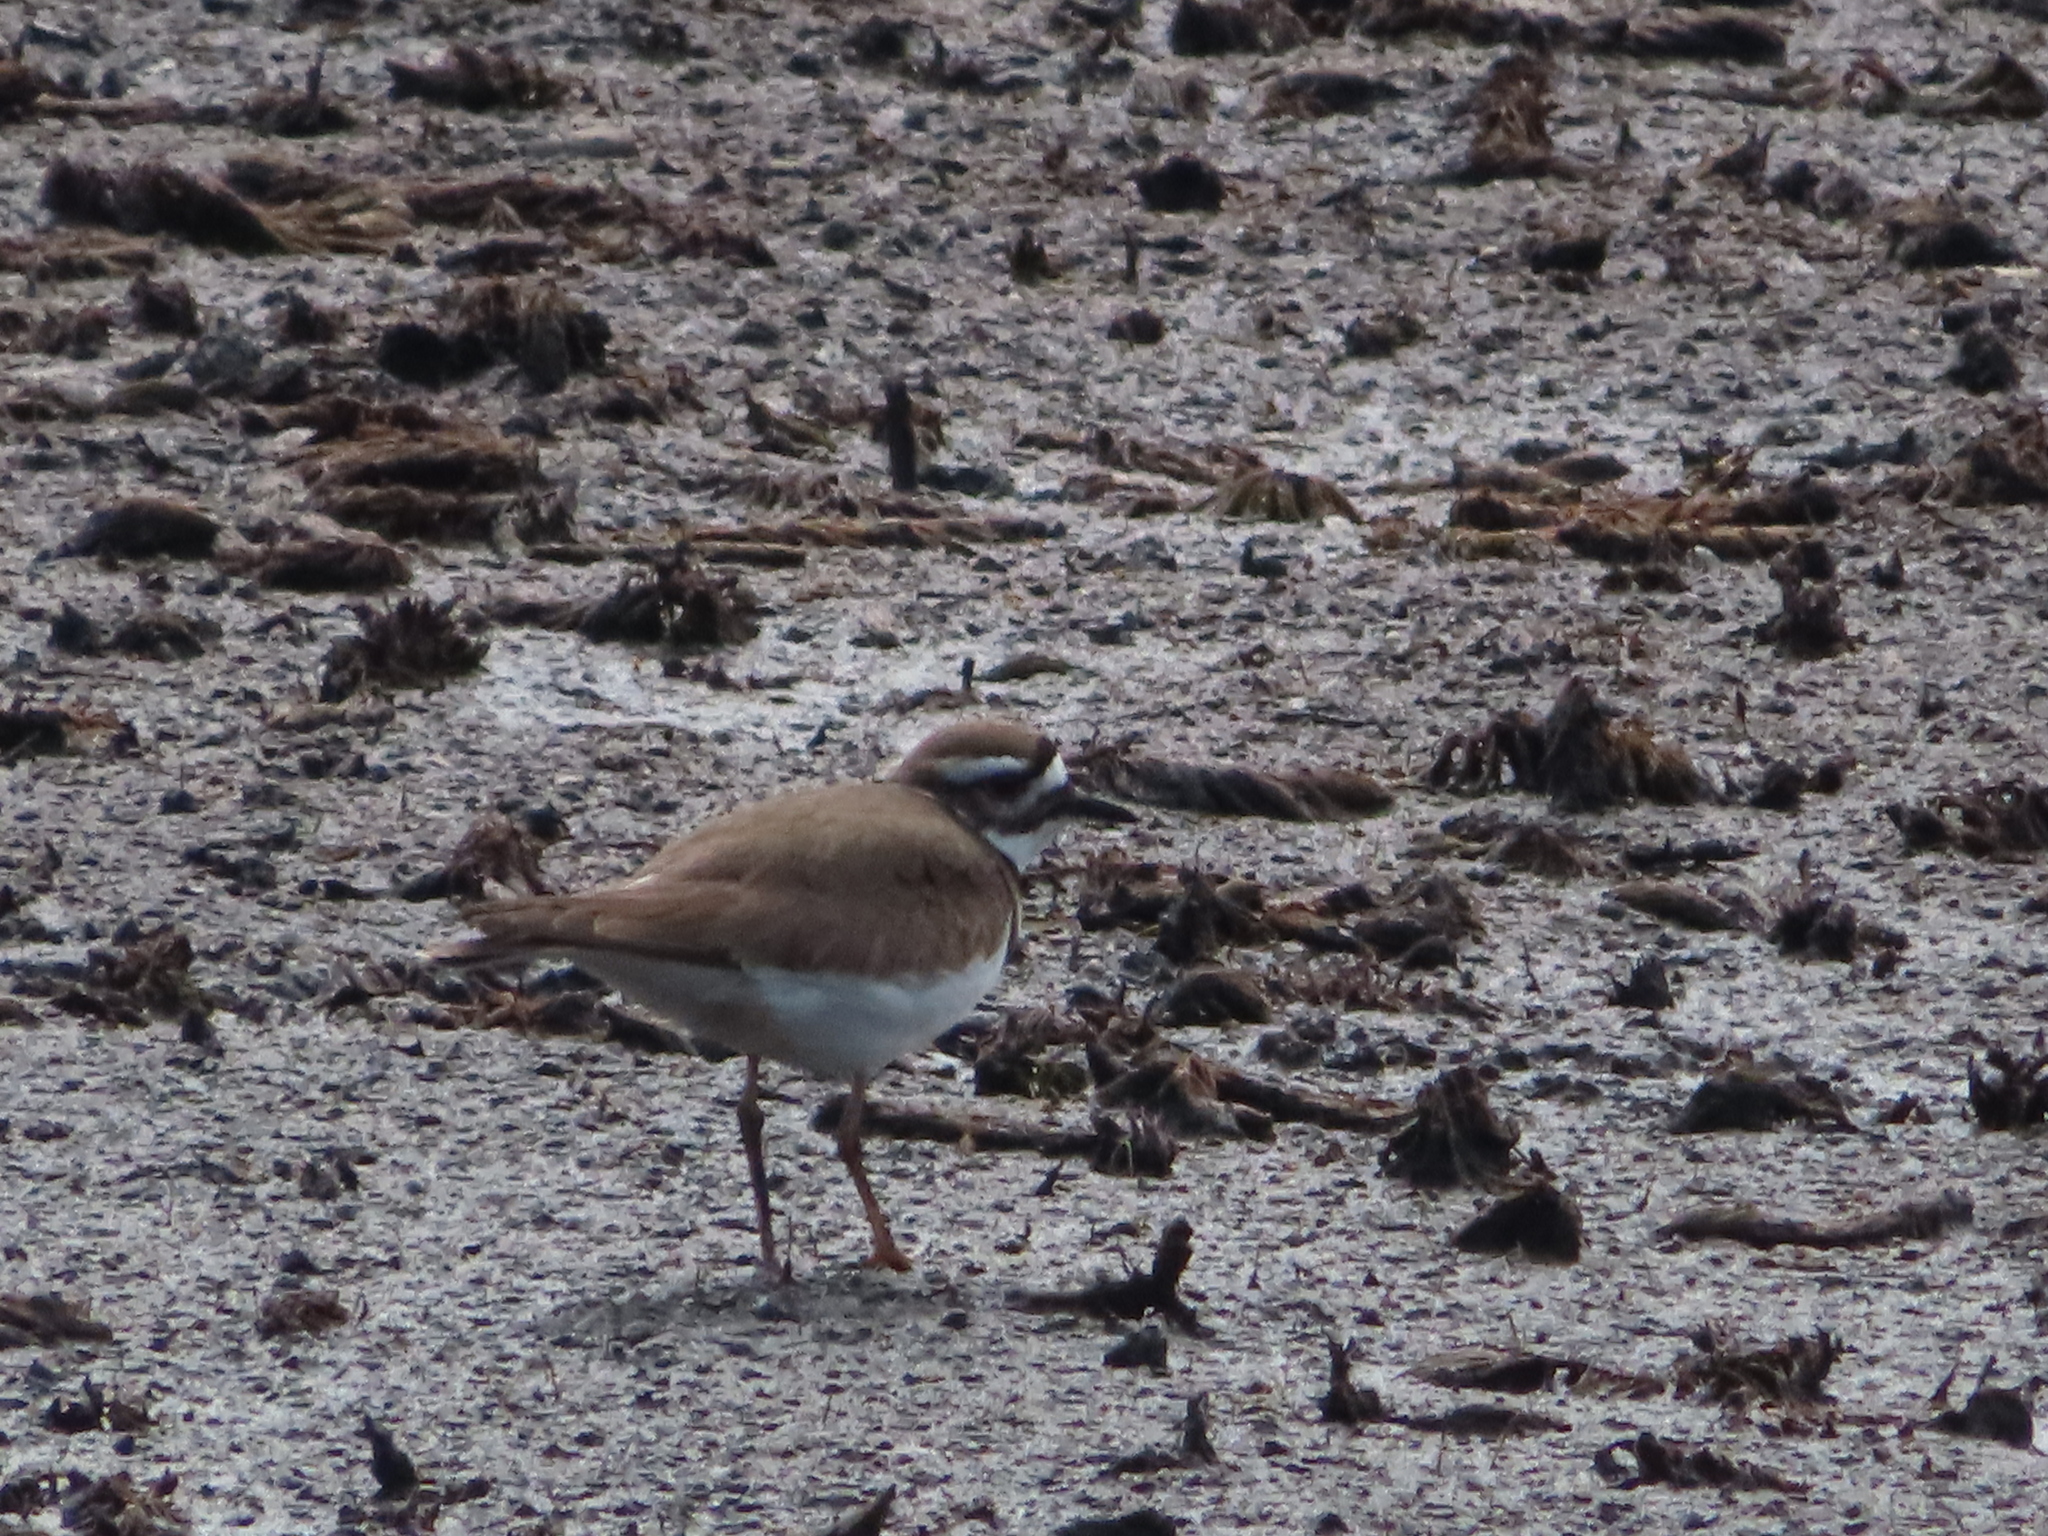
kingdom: Animalia
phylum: Chordata
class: Aves
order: Charadriiformes
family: Charadriidae
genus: Charadrius
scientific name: Charadrius vociferus
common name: Killdeer
